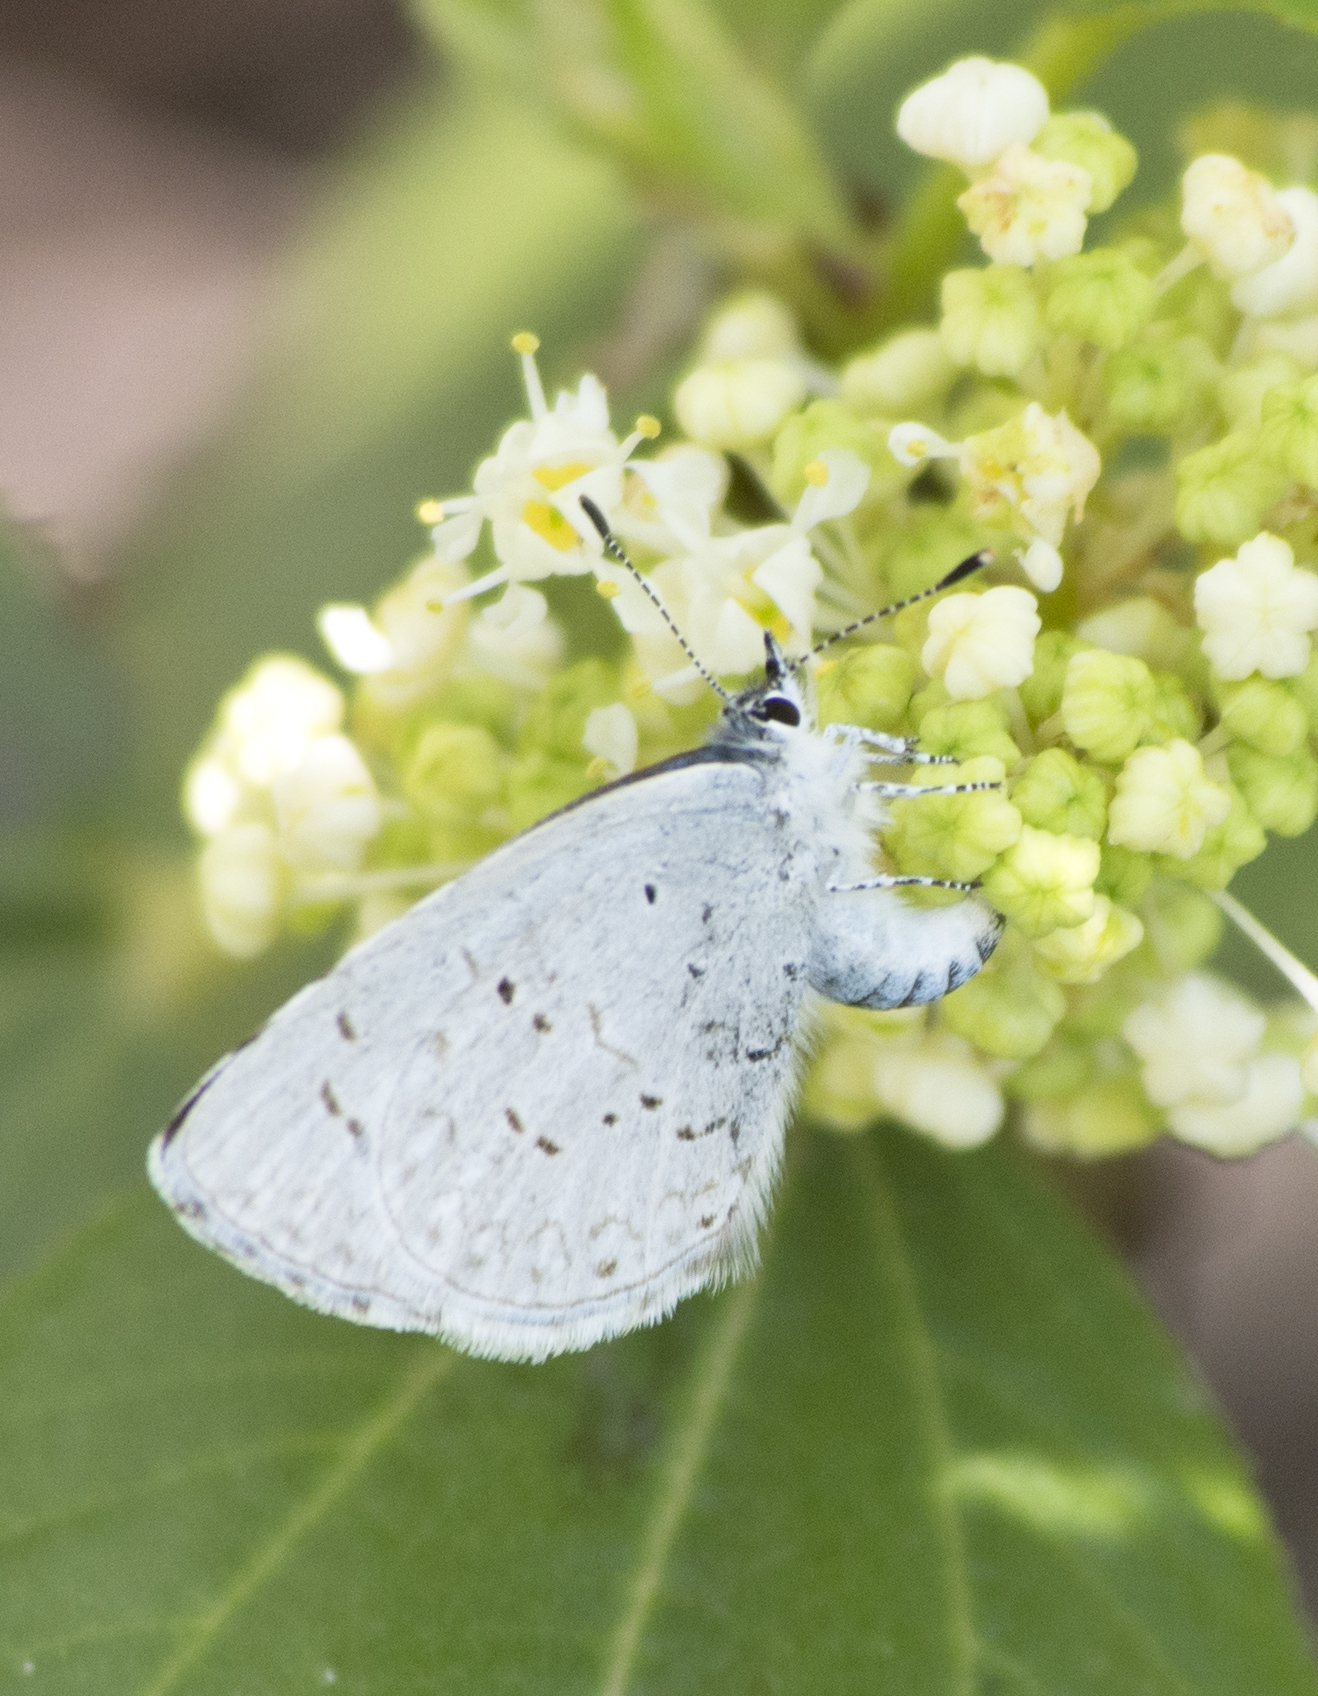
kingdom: Animalia
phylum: Arthropoda
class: Insecta
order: Lepidoptera
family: Lycaenidae
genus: Celastrina
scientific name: Celastrina ladon
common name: Spring azure
